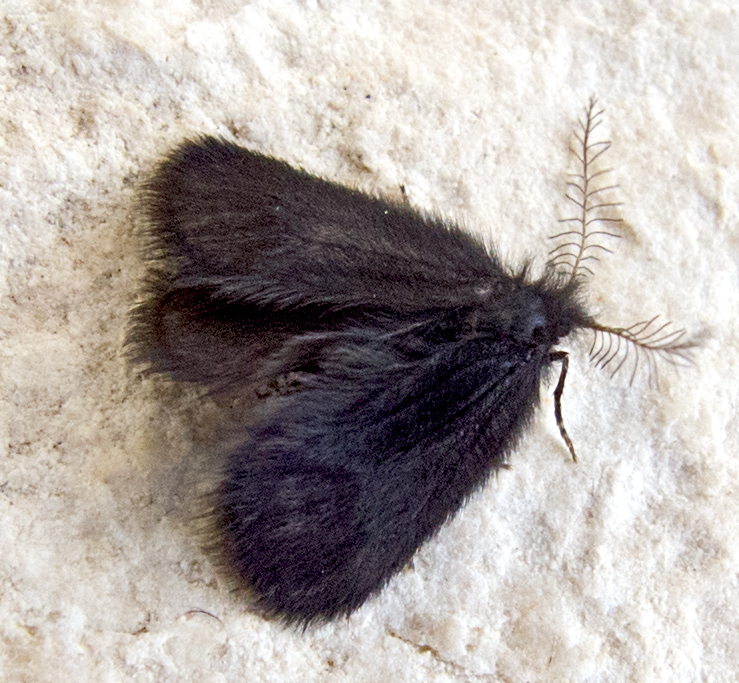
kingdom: Animalia
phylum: Arthropoda
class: Insecta
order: Lepidoptera
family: Psychidae
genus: Epichnopterix
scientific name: Epichnopterix plumella
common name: Round-winged sweep
